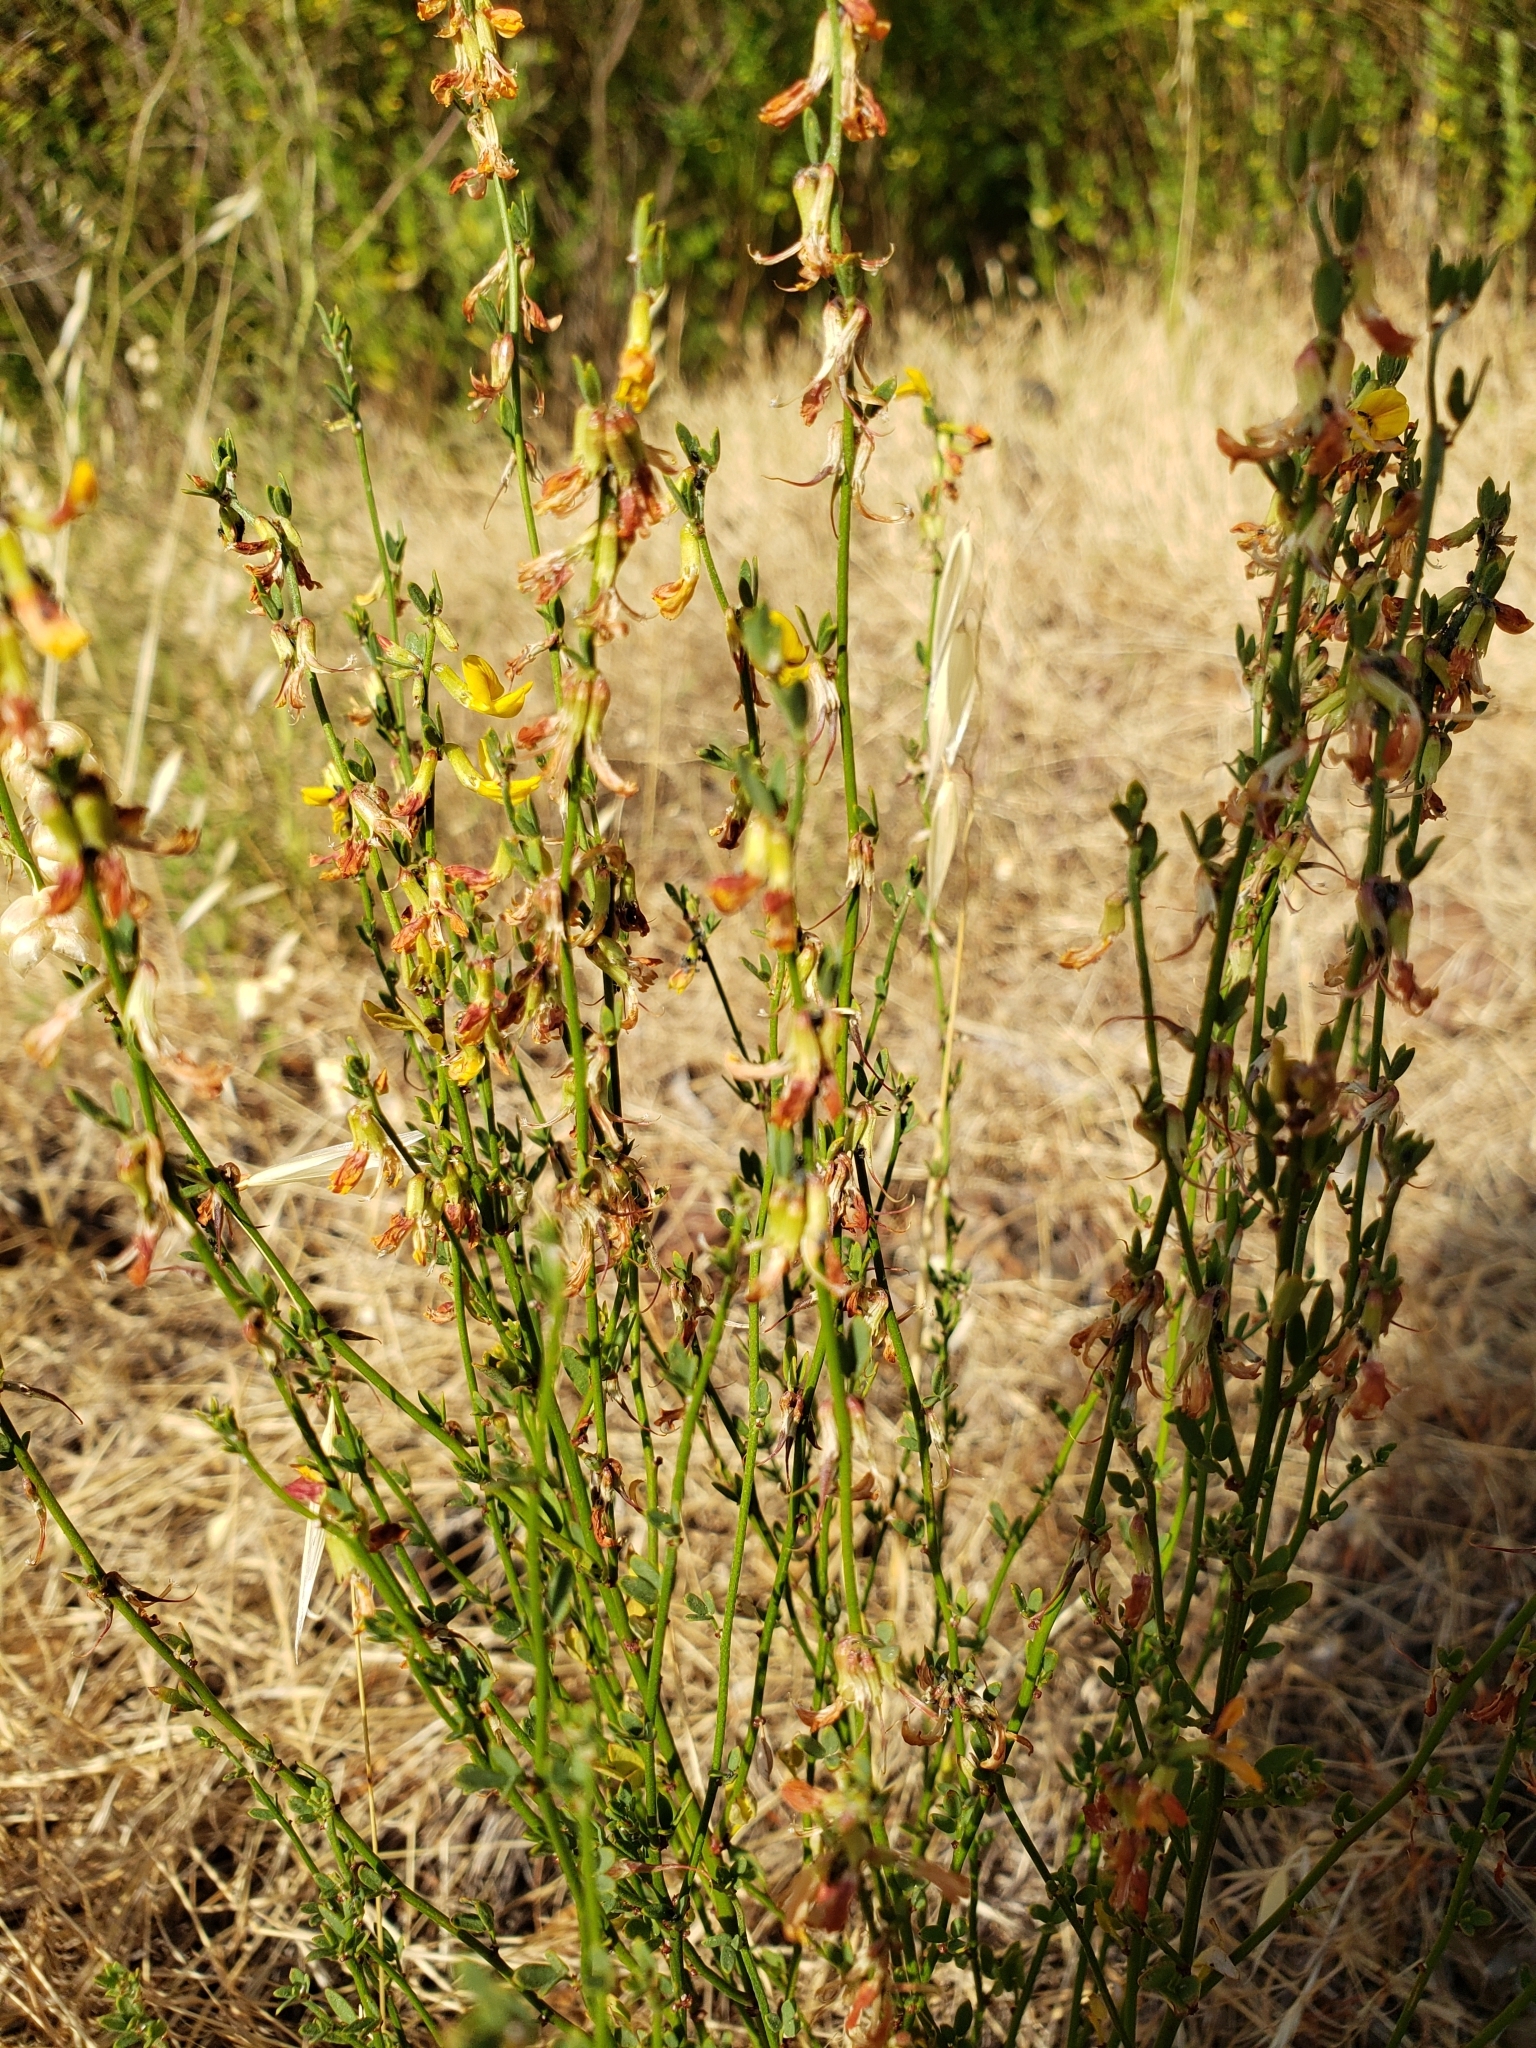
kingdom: Plantae
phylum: Tracheophyta
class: Magnoliopsida
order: Fabales
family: Fabaceae
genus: Acmispon
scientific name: Acmispon glaber
